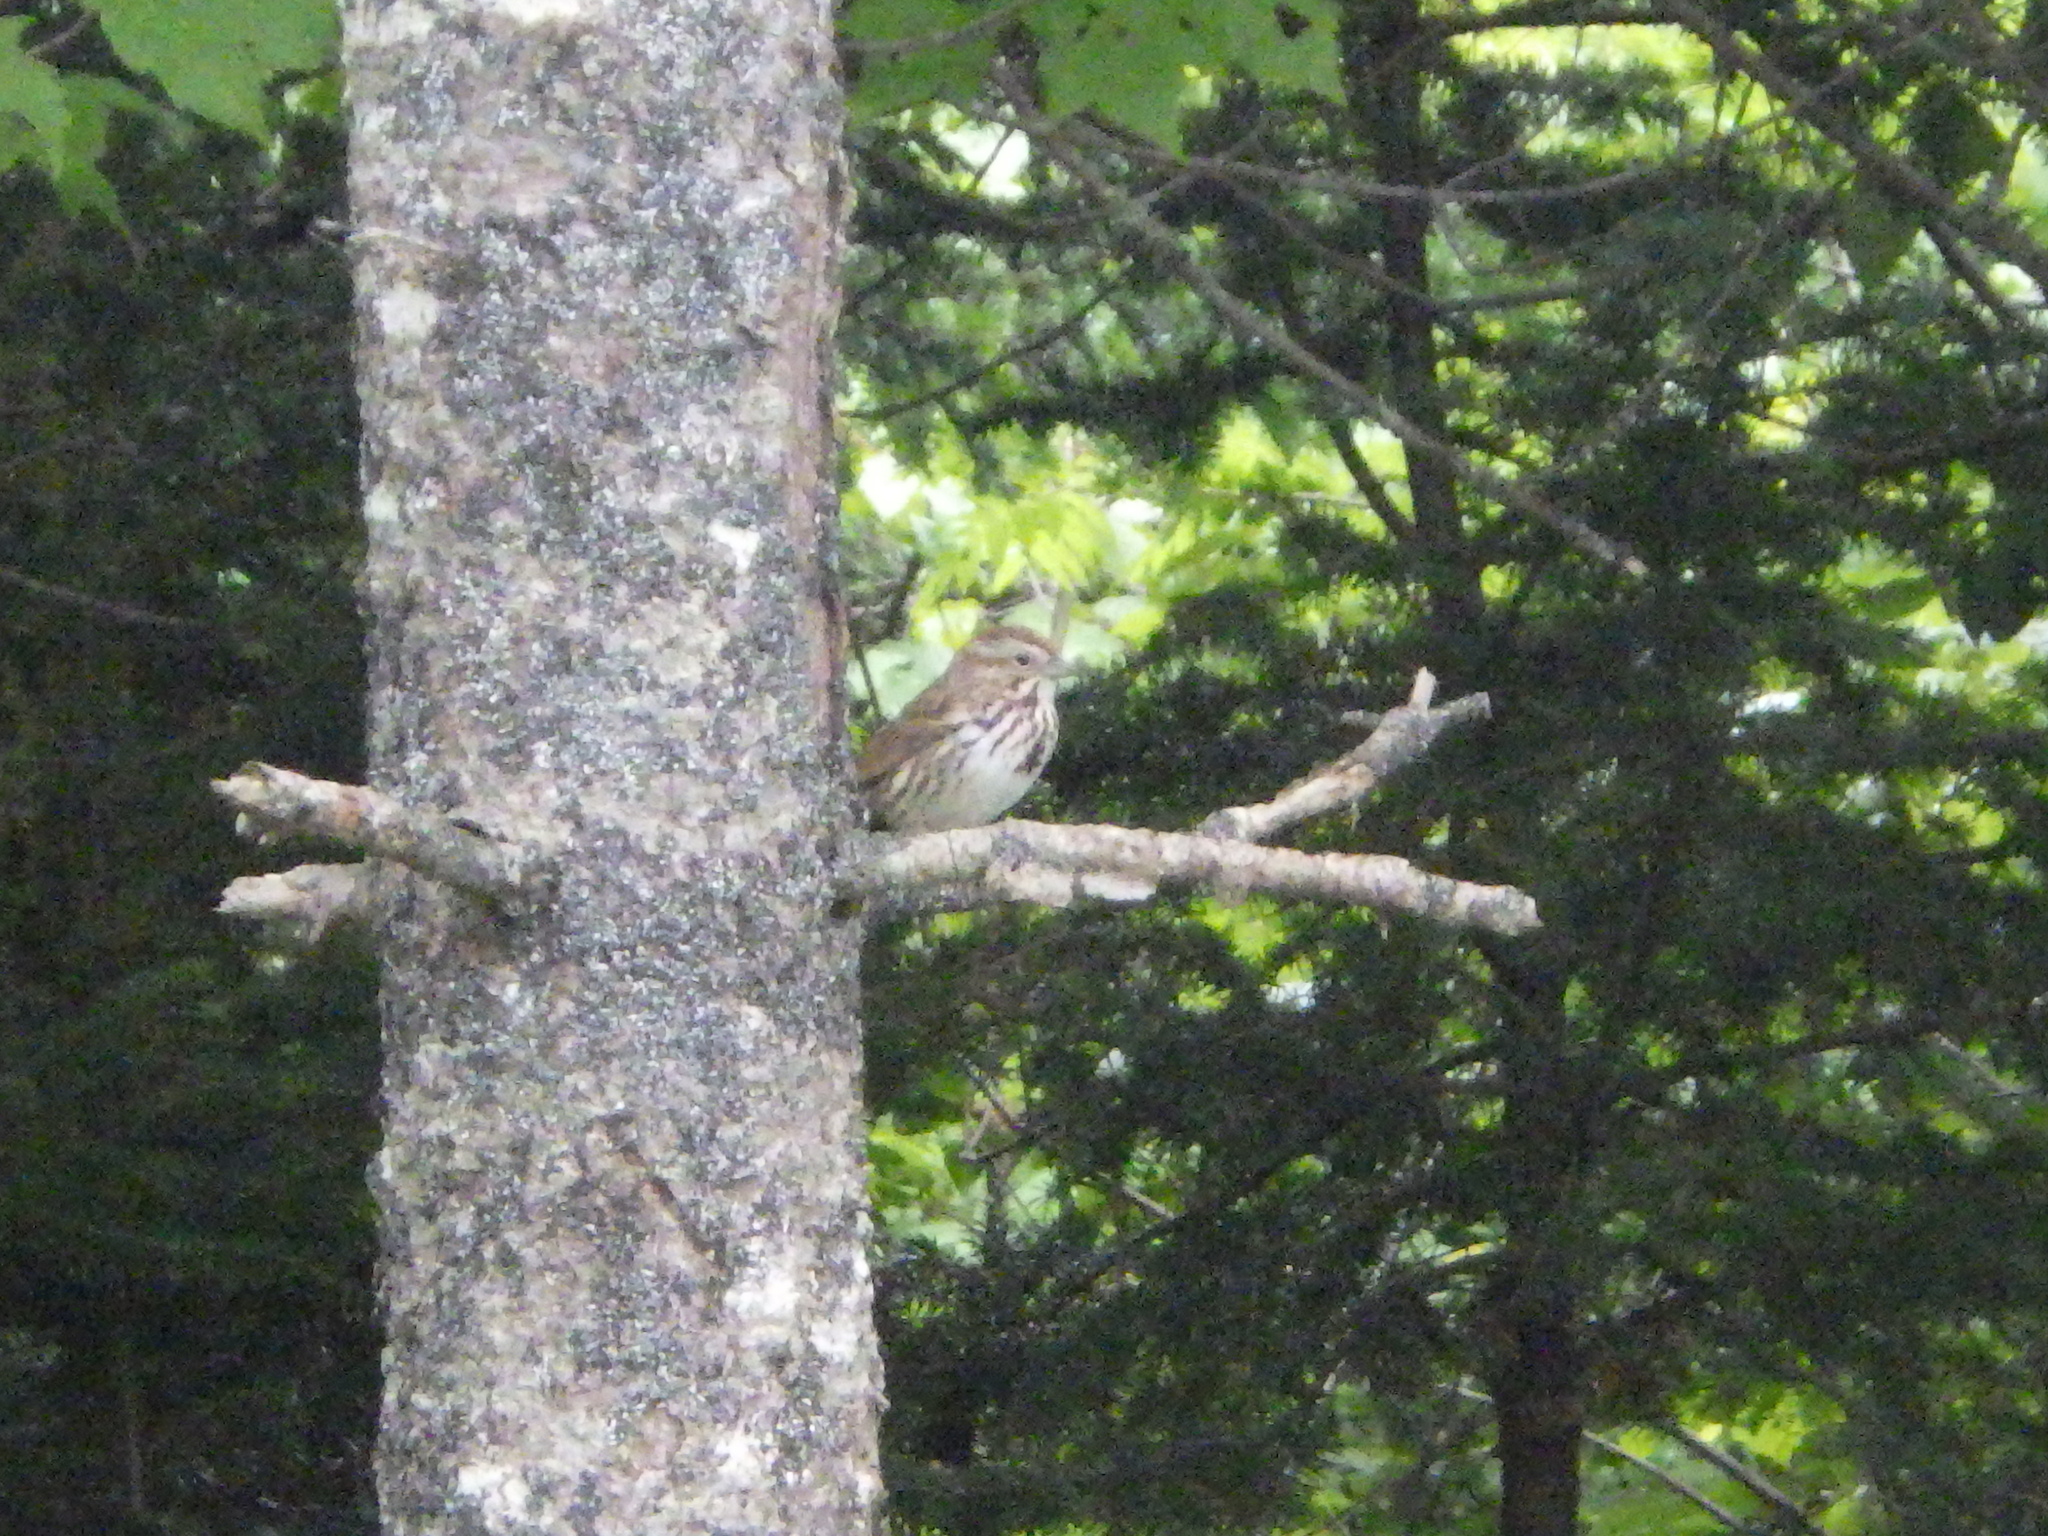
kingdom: Animalia
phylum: Chordata
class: Aves
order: Passeriformes
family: Passerellidae
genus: Melospiza
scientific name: Melospiza melodia
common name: Song sparrow
